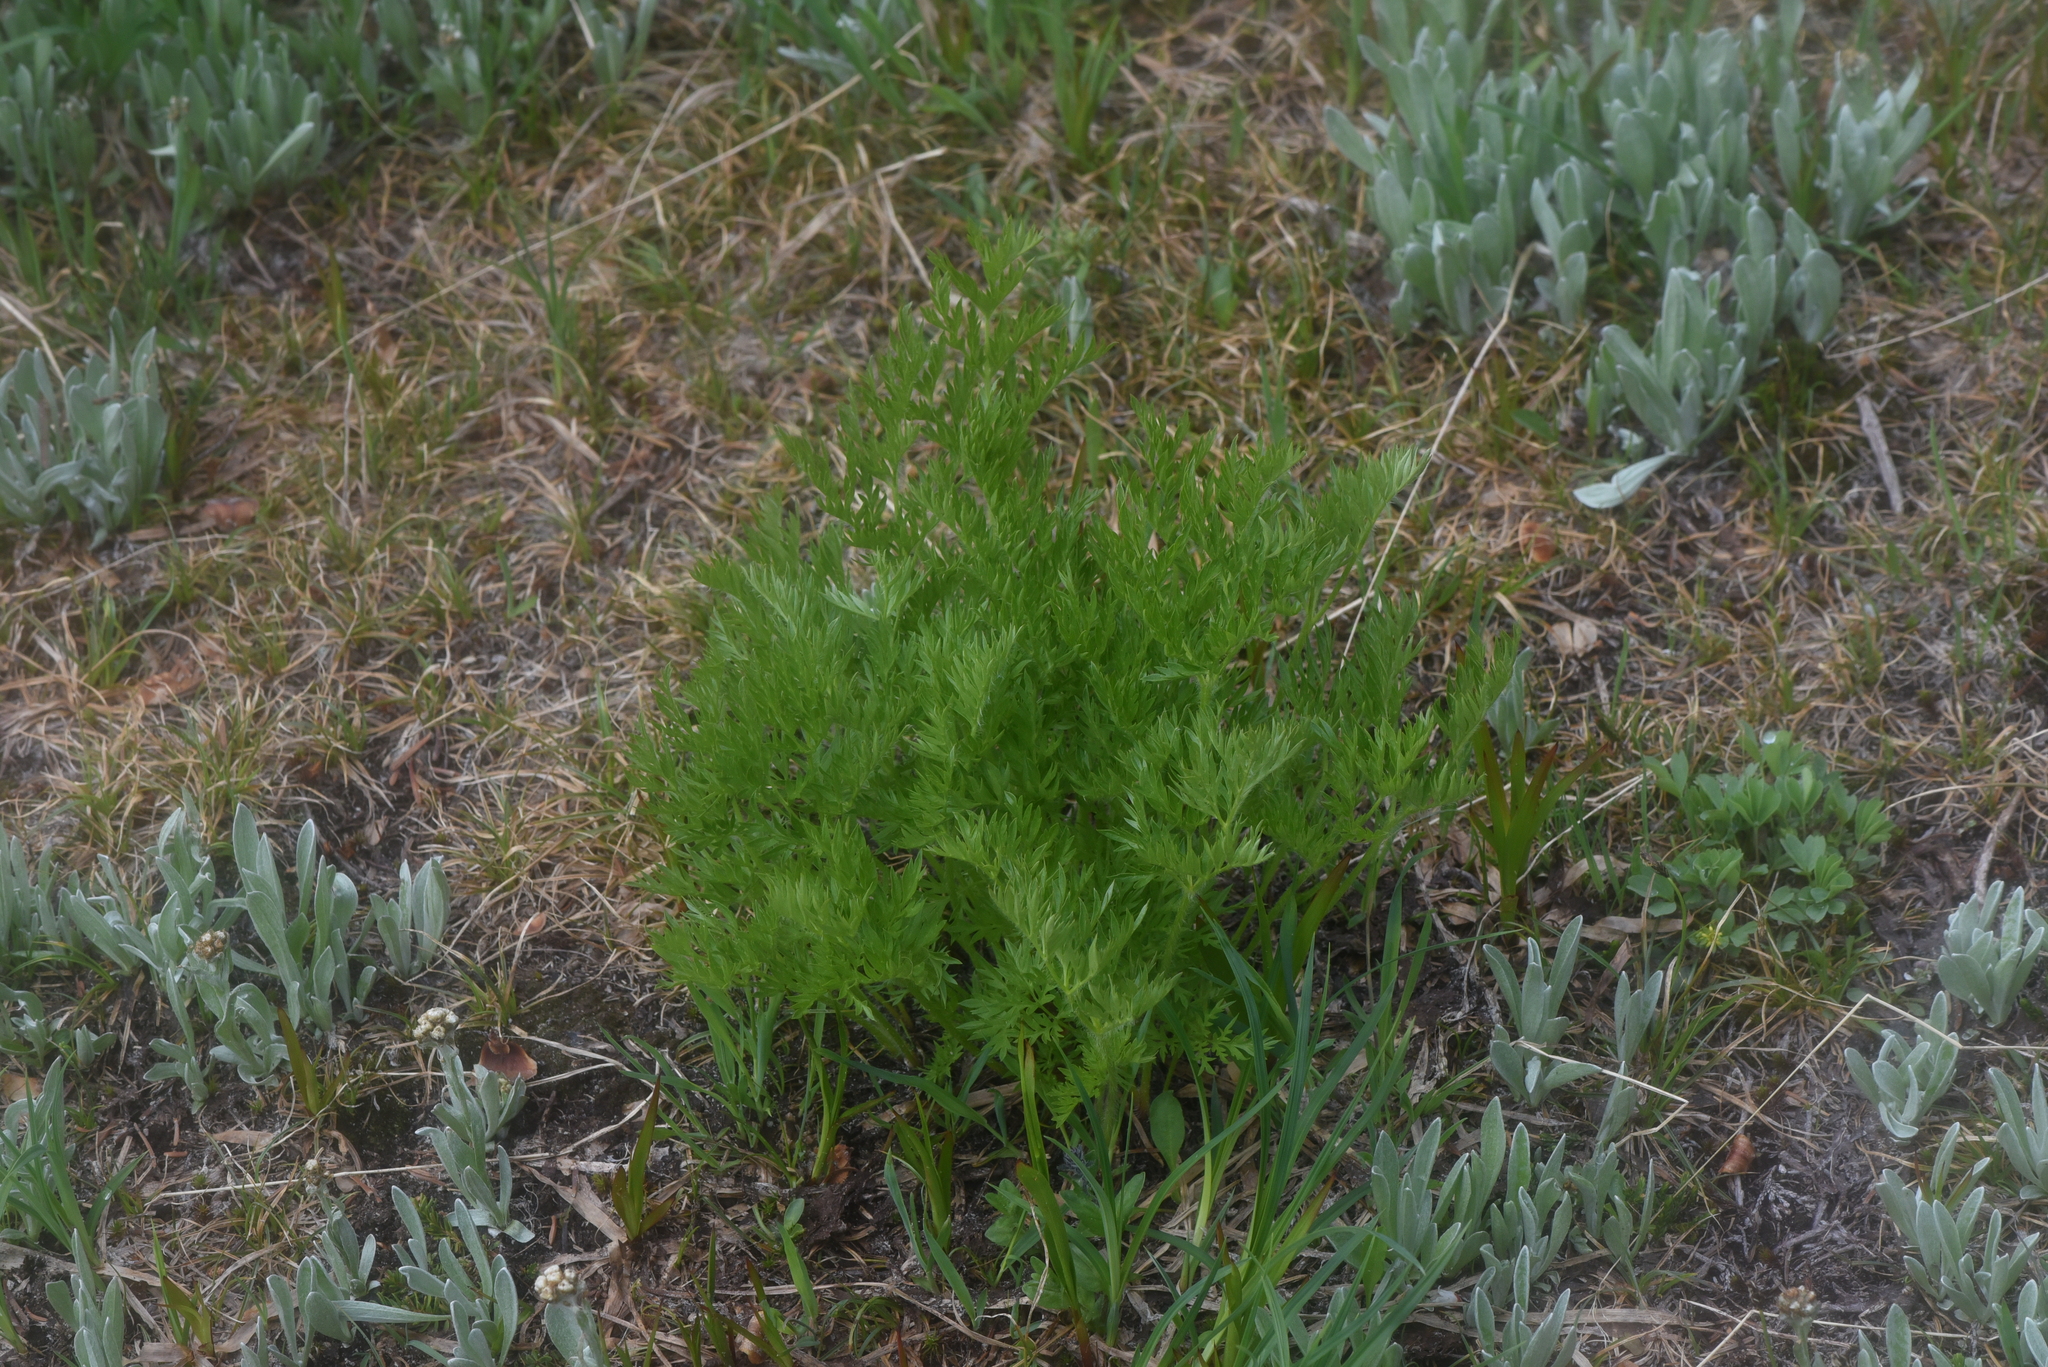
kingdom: Plantae
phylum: Tracheophyta
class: Magnoliopsida
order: Ranunculales
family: Ranunculaceae
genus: Pulsatilla
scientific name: Pulsatilla occidentalis
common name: Mountain pasqueflower
